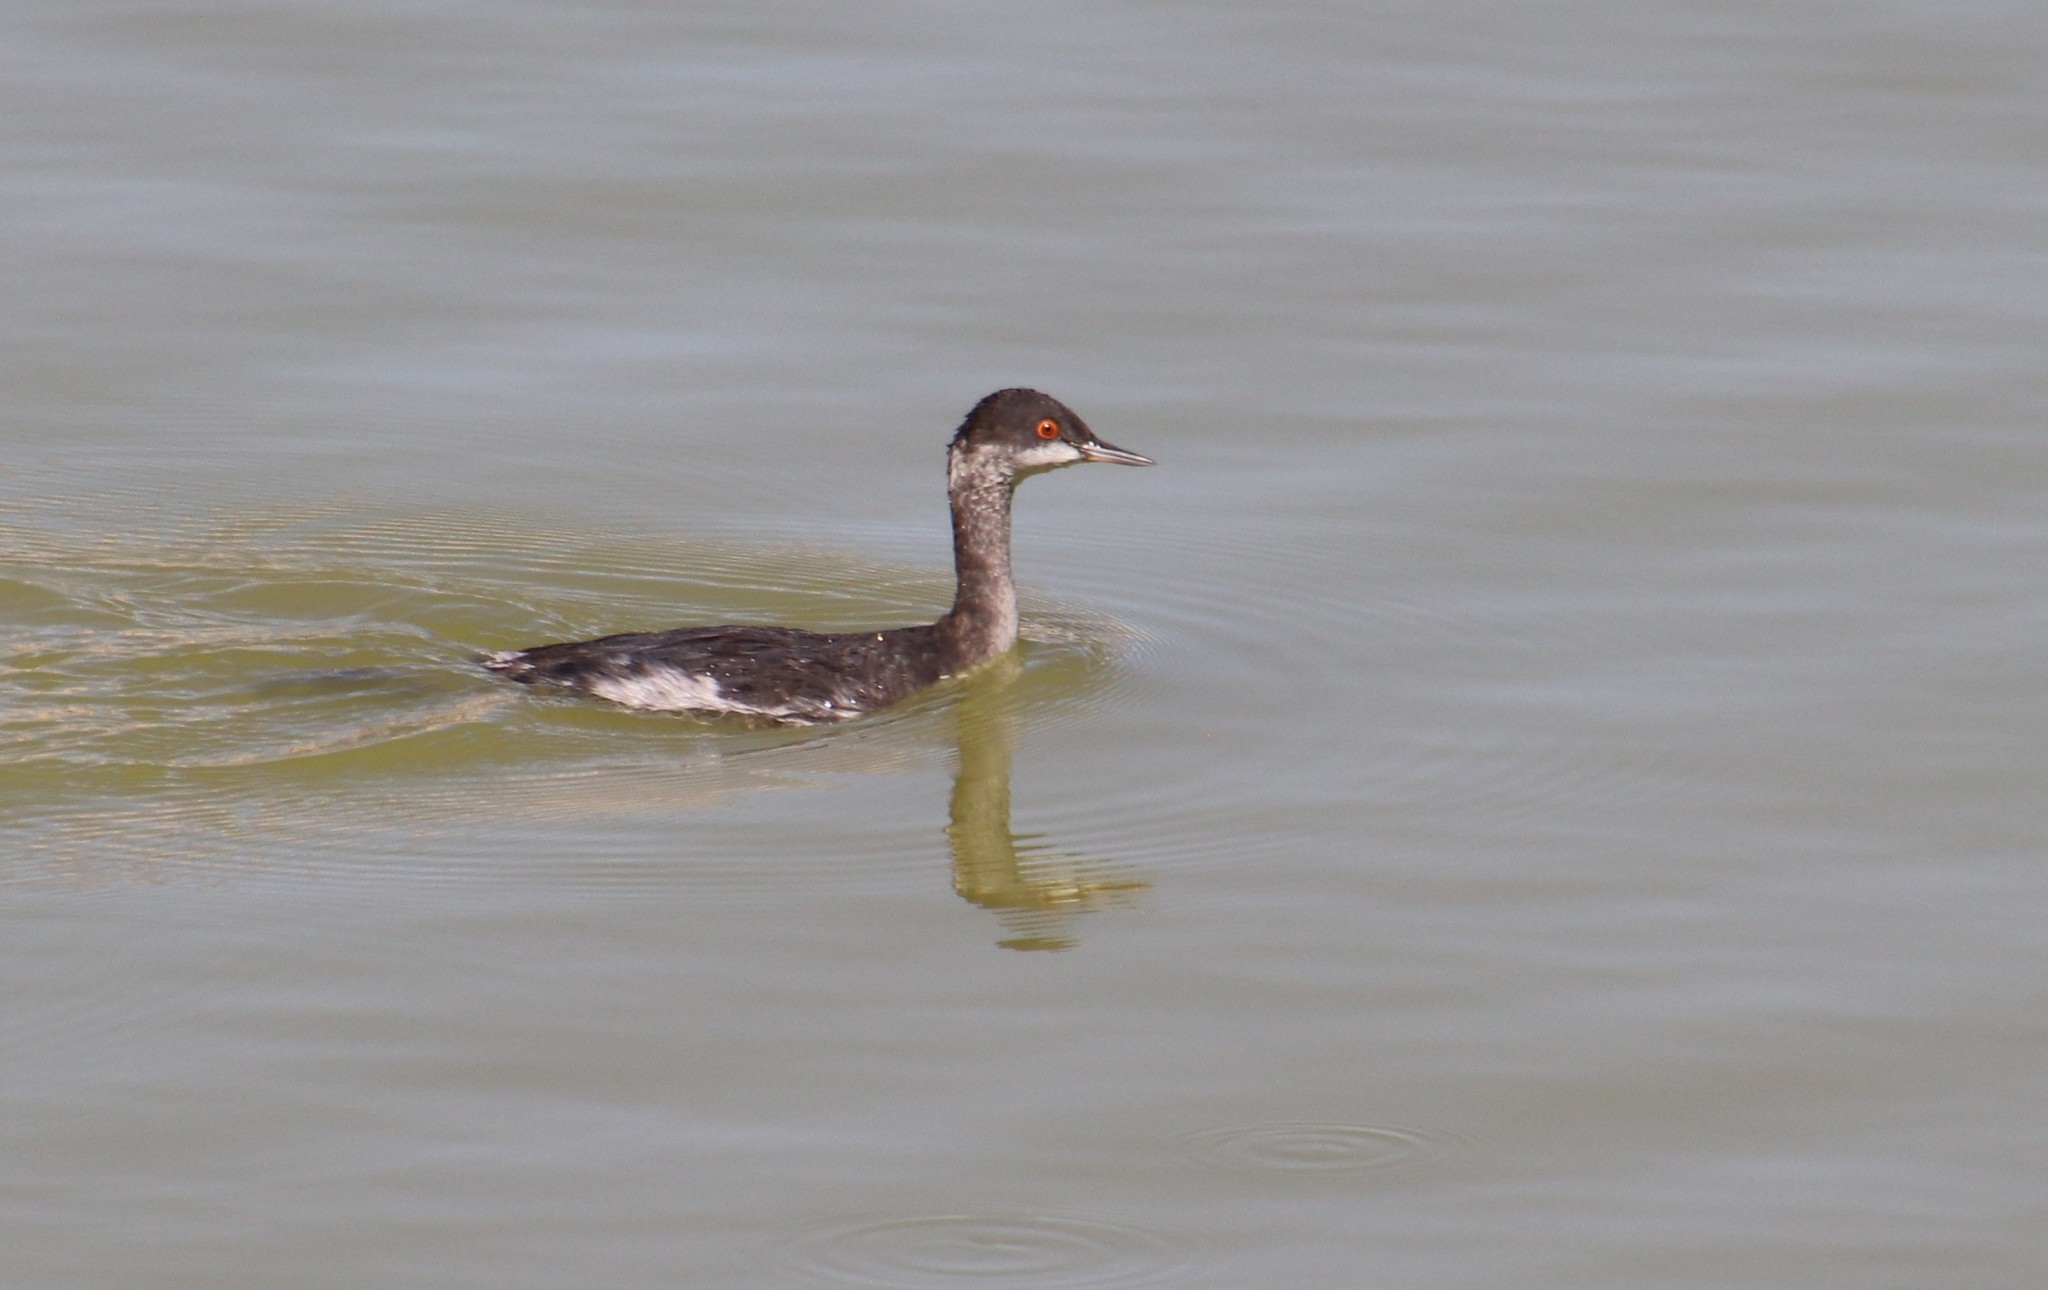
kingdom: Animalia
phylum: Chordata
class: Aves
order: Podicipediformes
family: Podicipedidae
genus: Podiceps
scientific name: Podiceps nigricollis
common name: Black-necked grebe
